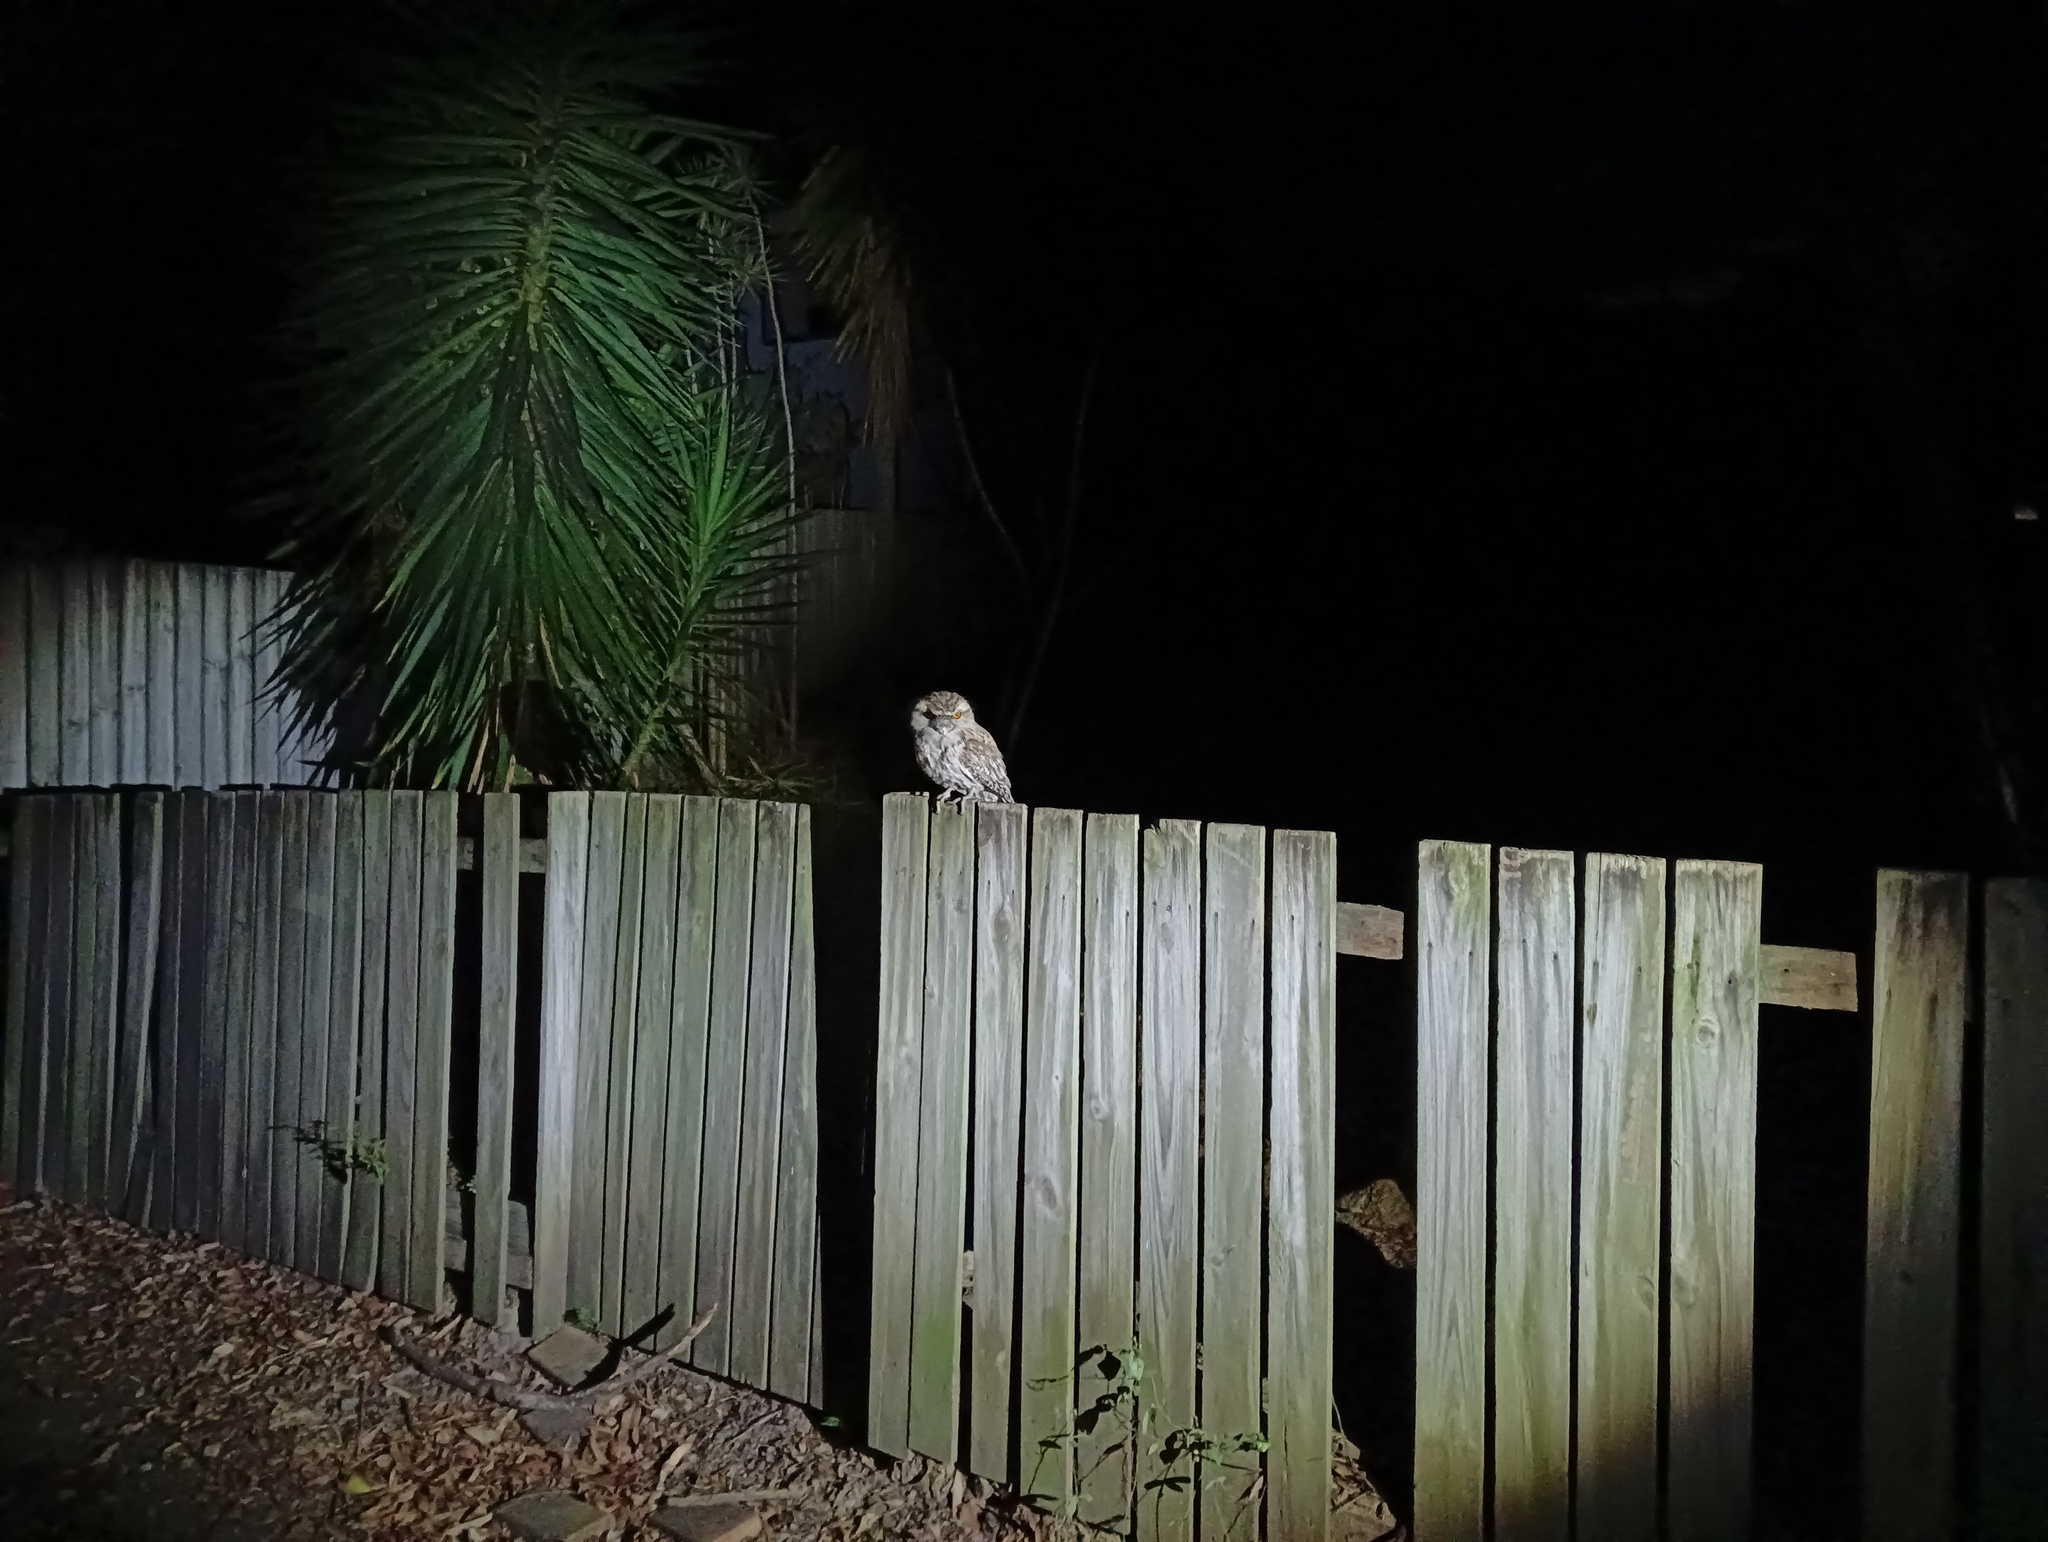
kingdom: Animalia
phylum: Chordata
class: Aves
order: Caprimulgiformes
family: Podargidae
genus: Podargus
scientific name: Podargus strigoides
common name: Tawny frogmouth
